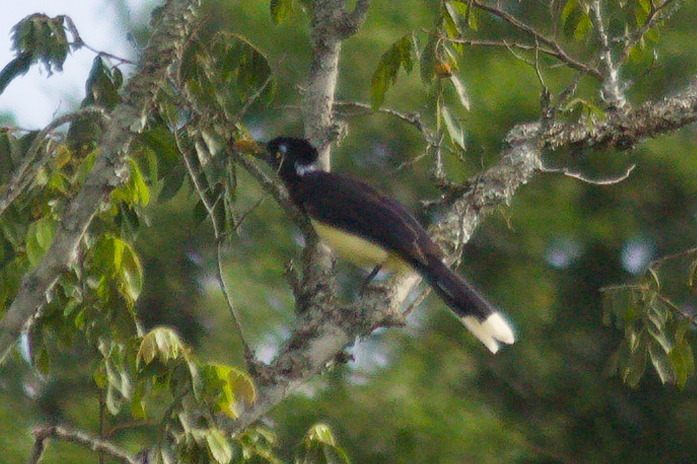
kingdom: Animalia
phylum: Chordata
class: Aves
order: Passeriformes
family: Corvidae
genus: Cyanocorax
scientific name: Cyanocorax chrysops
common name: Plush-crested jay
